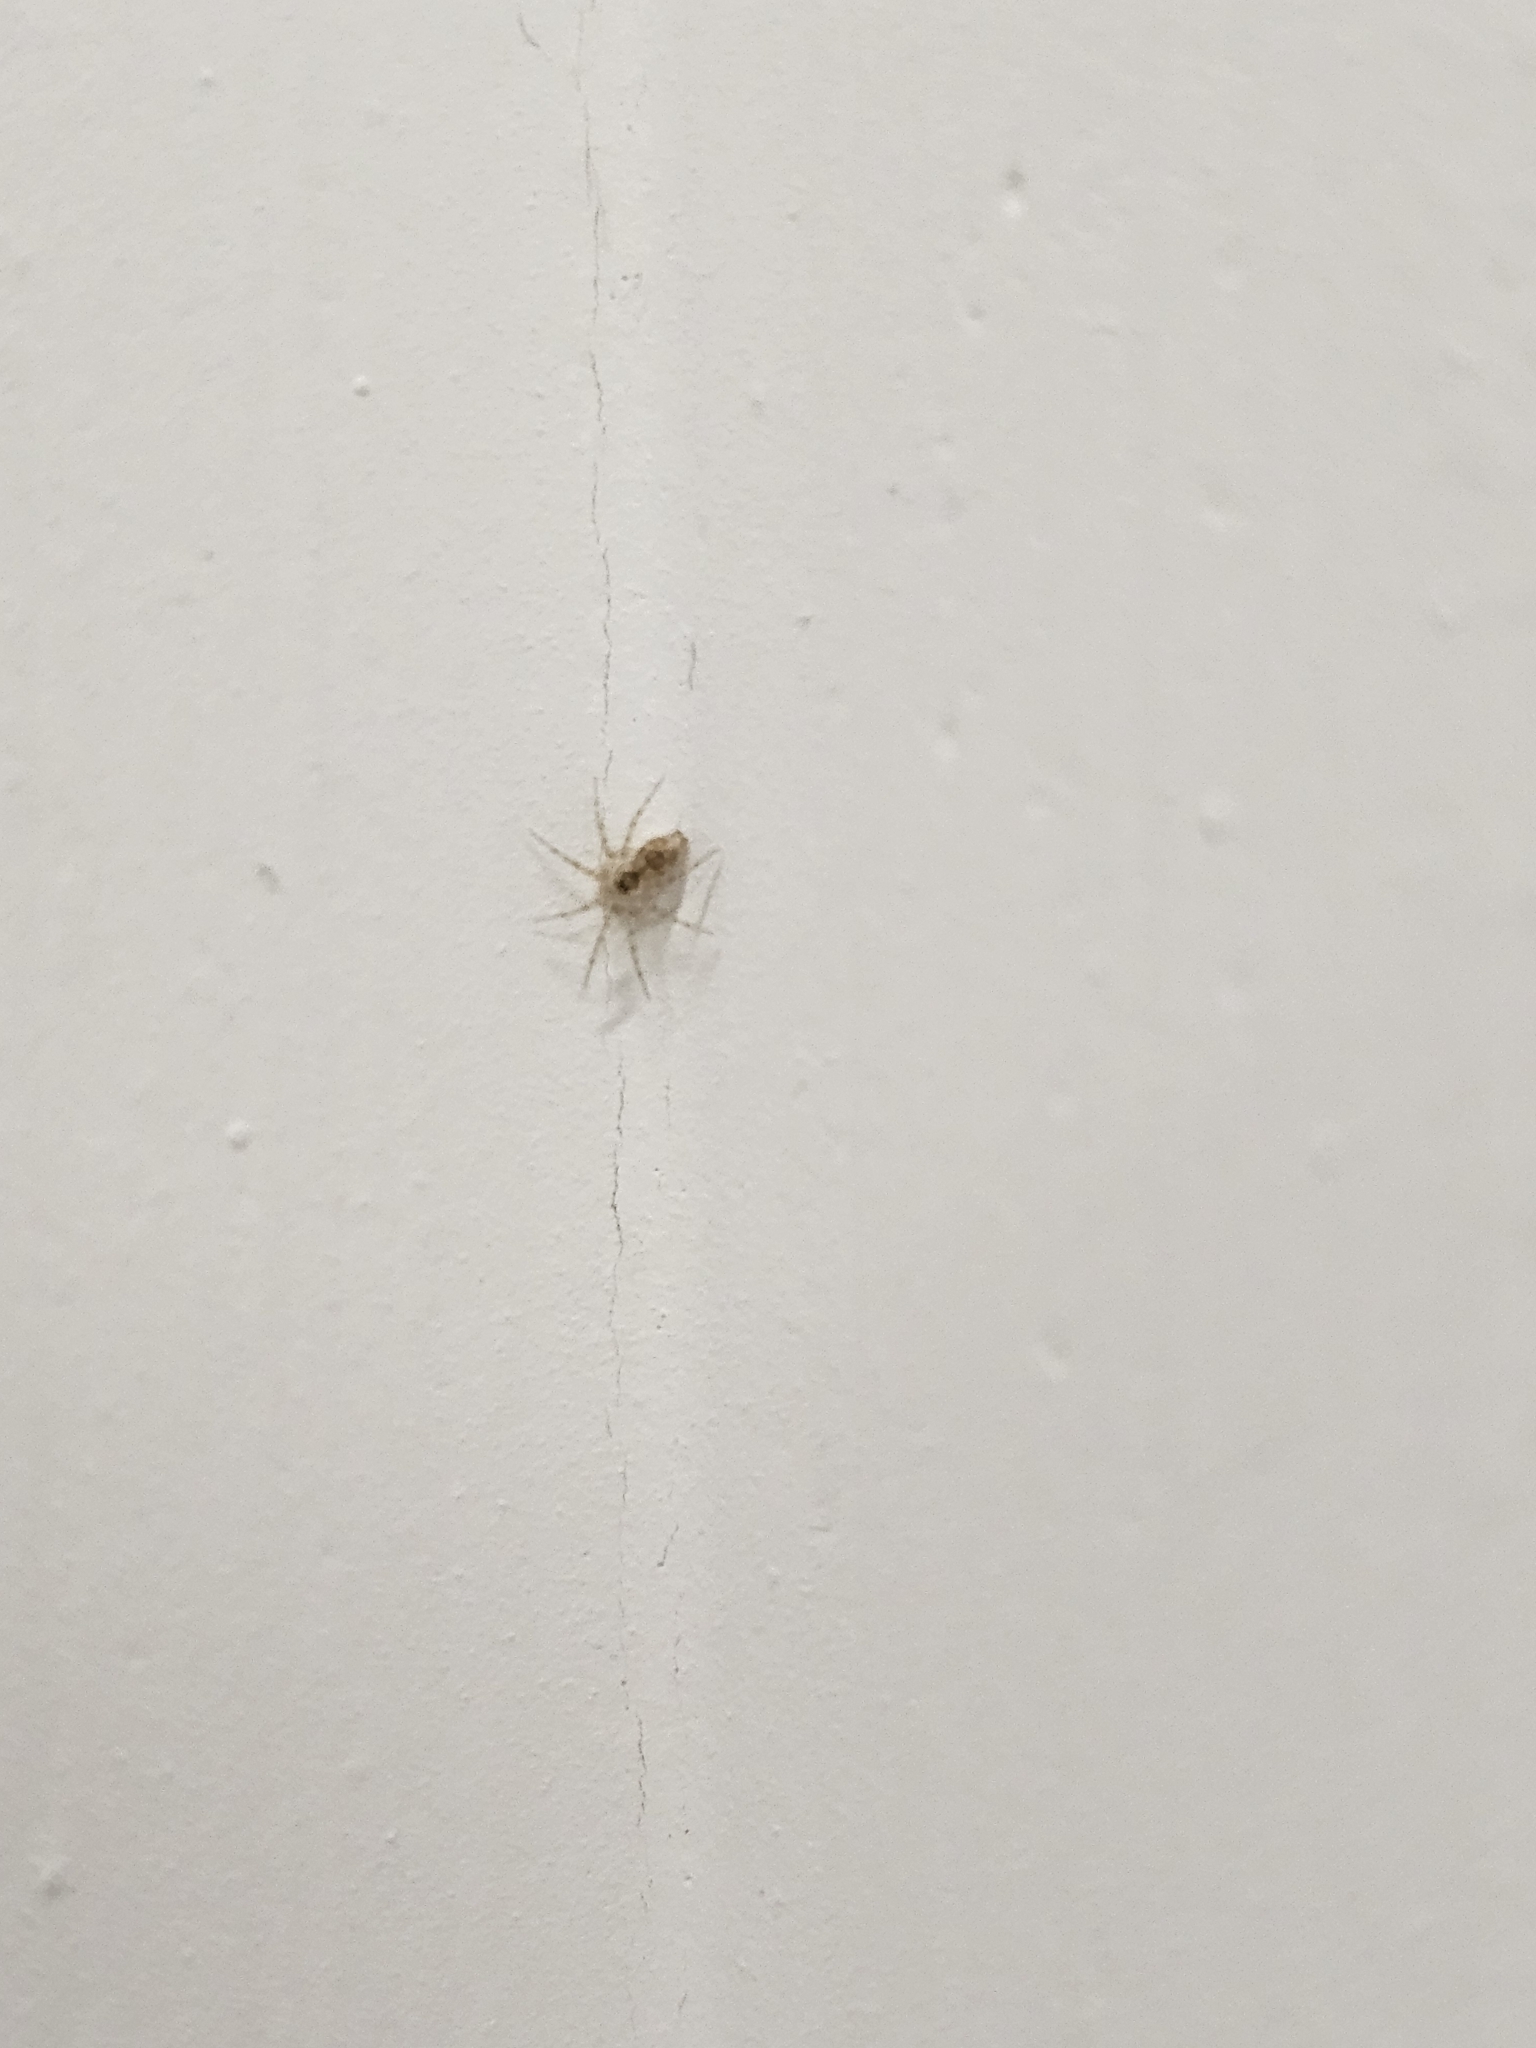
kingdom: Animalia
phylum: Arthropoda
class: Arachnida
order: Araneae
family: Oecobiidae
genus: Oecobius
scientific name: Oecobius
